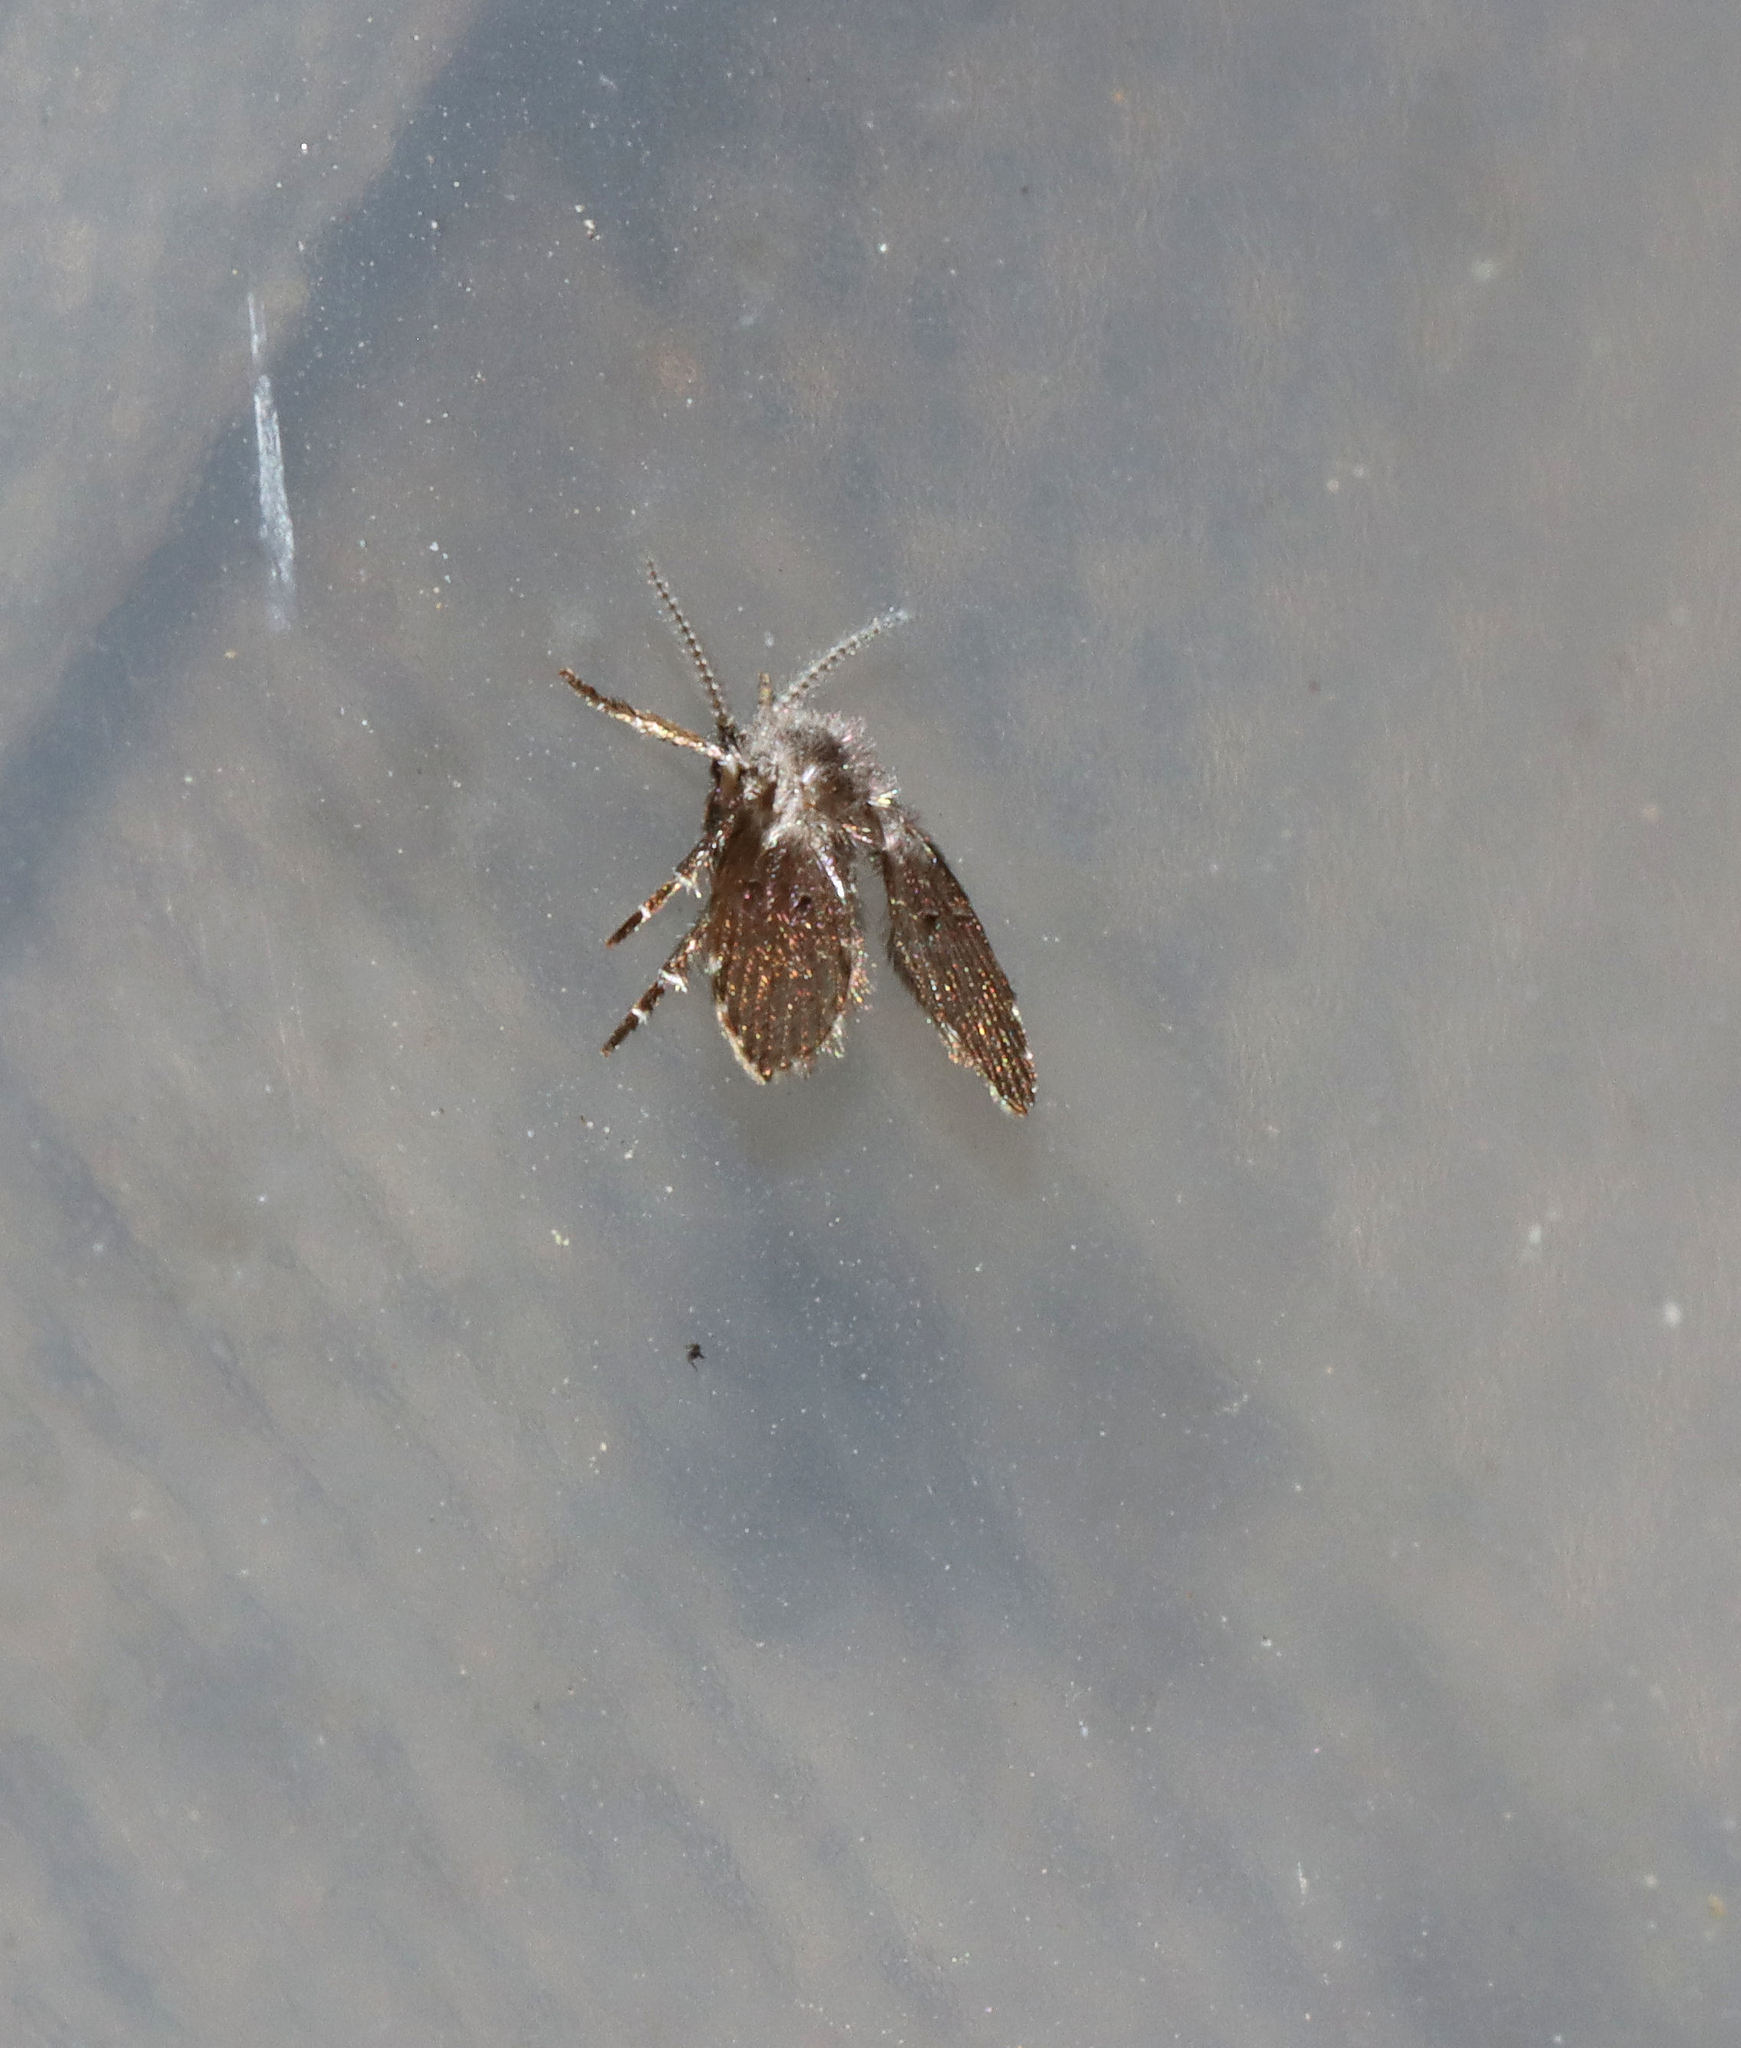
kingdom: Animalia
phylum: Arthropoda
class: Insecta
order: Diptera
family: Psychodidae
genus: Clogmia
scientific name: Clogmia albipunctatus
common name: White-spotted moth fly
